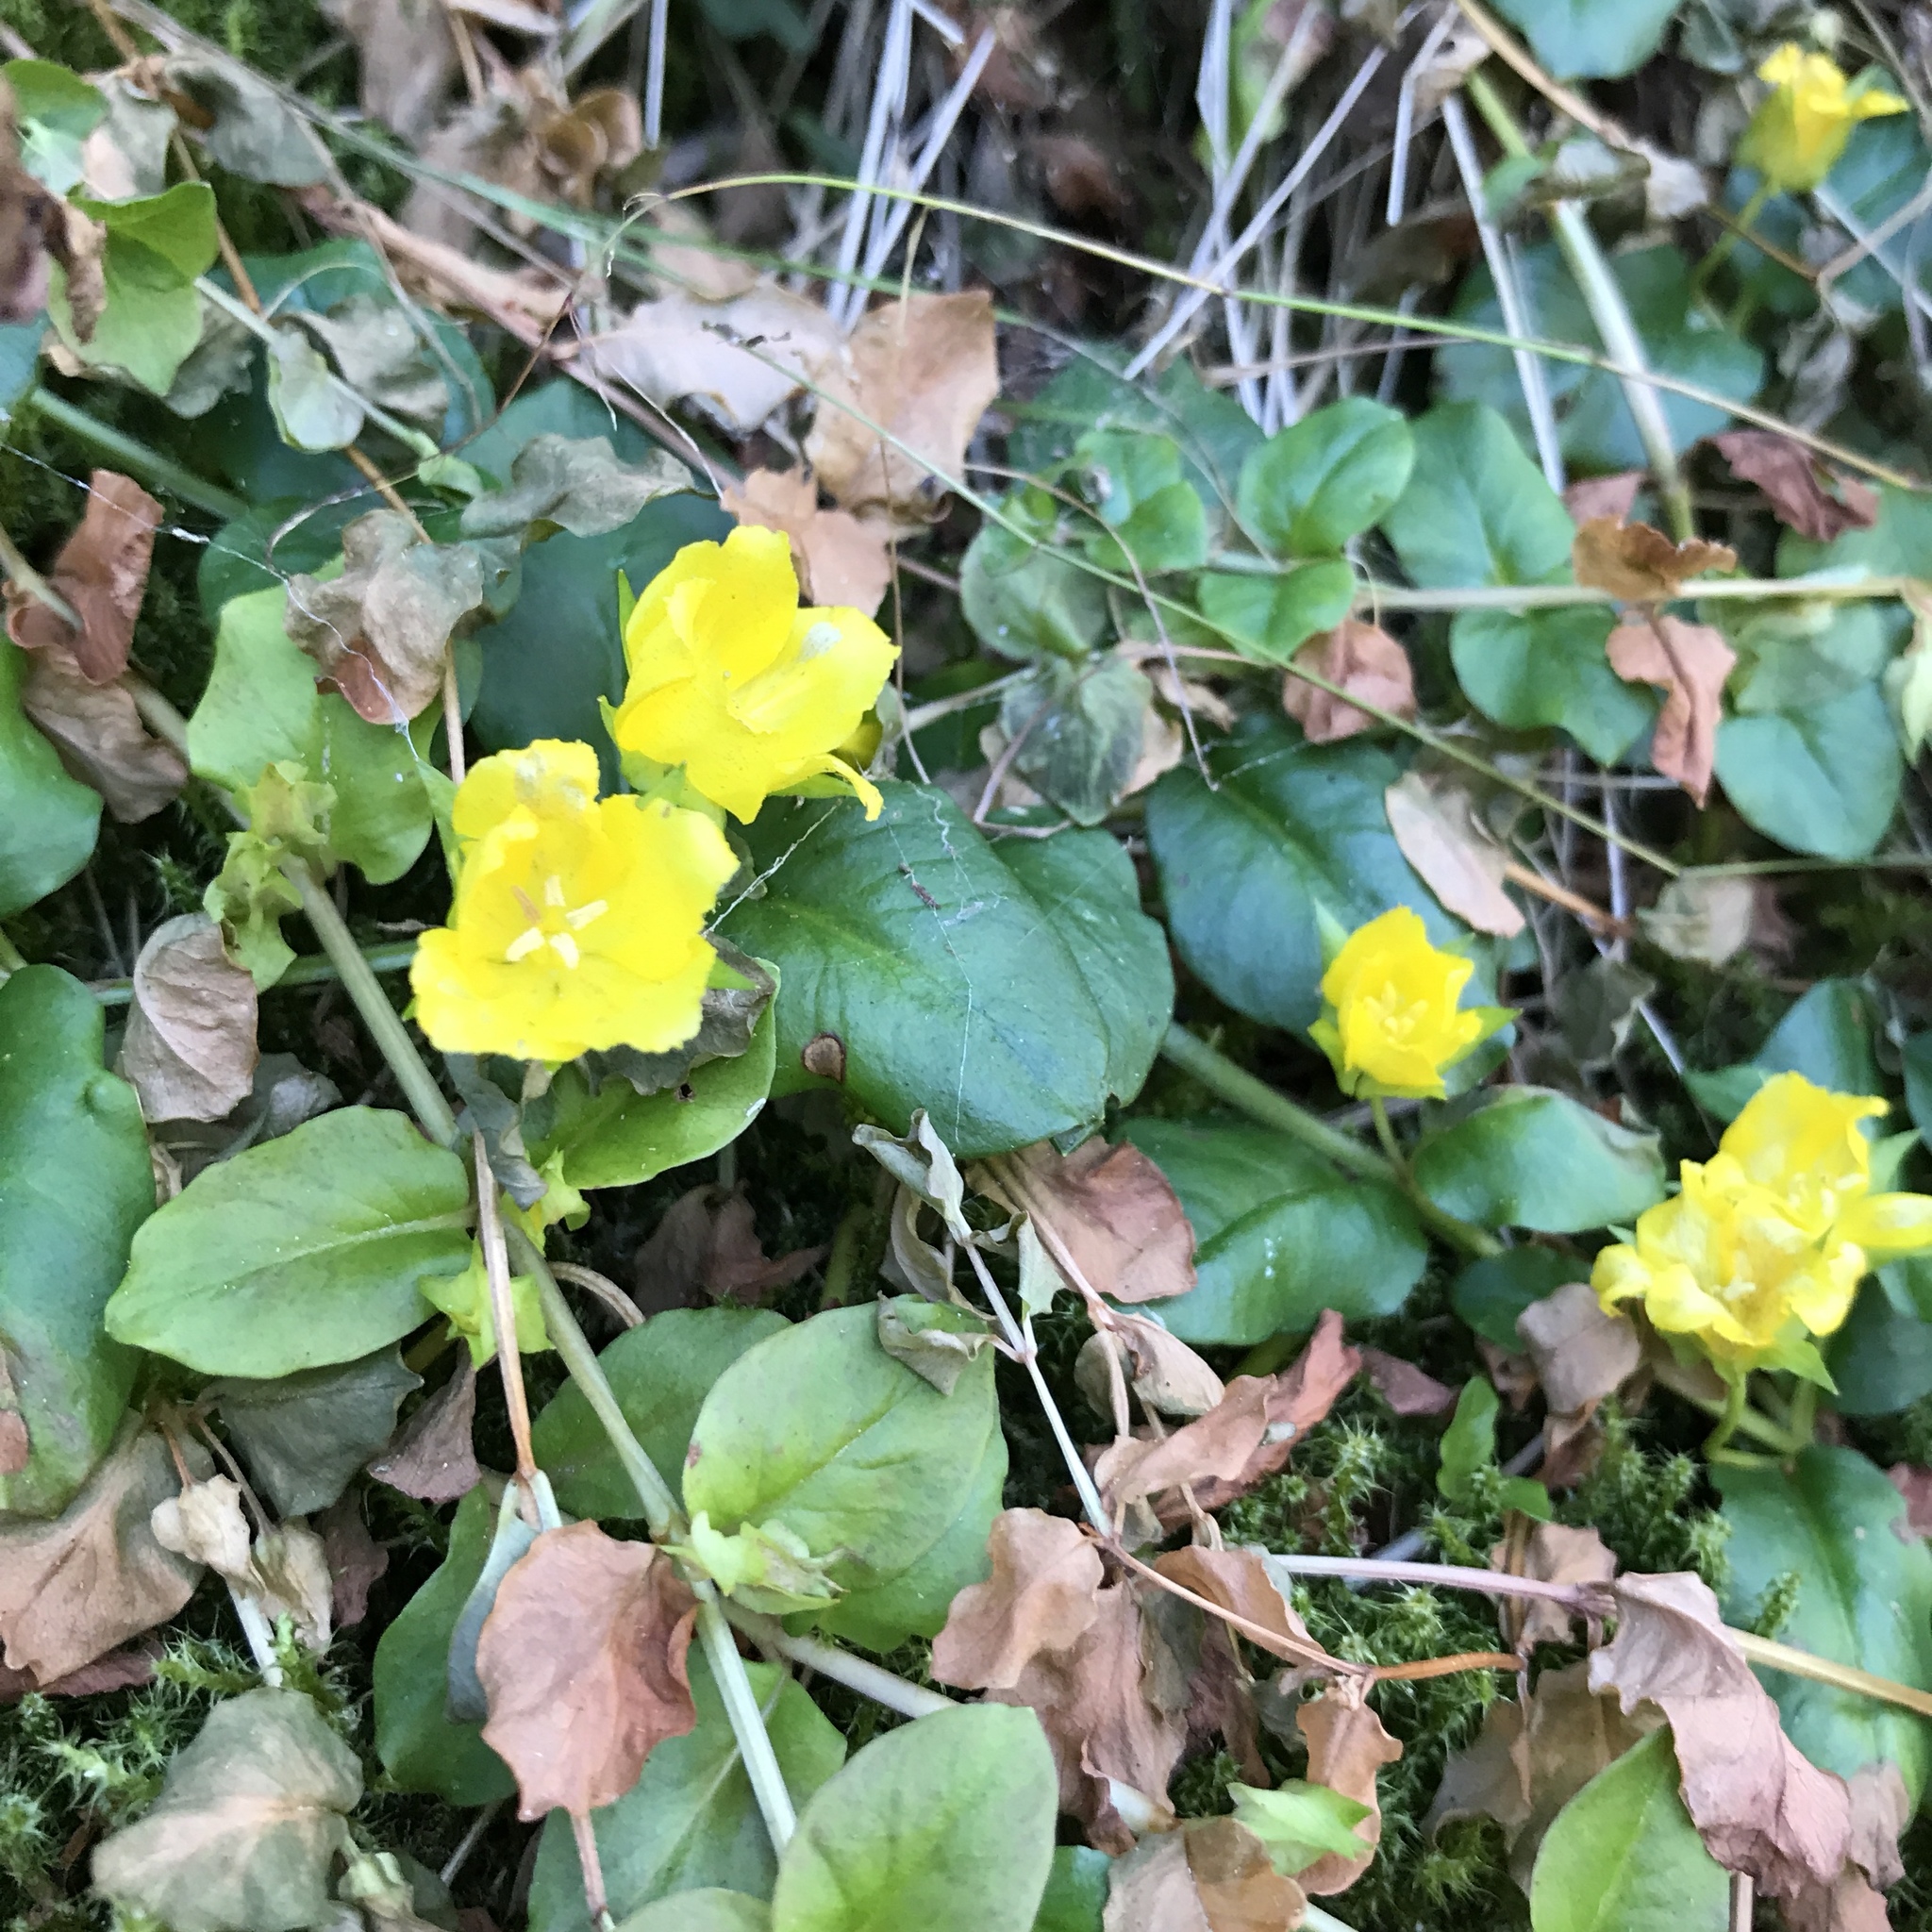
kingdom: Plantae
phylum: Tracheophyta
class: Magnoliopsida
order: Ericales
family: Primulaceae
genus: Lysimachia
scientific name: Lysimachia nummularia
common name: Moneywort
